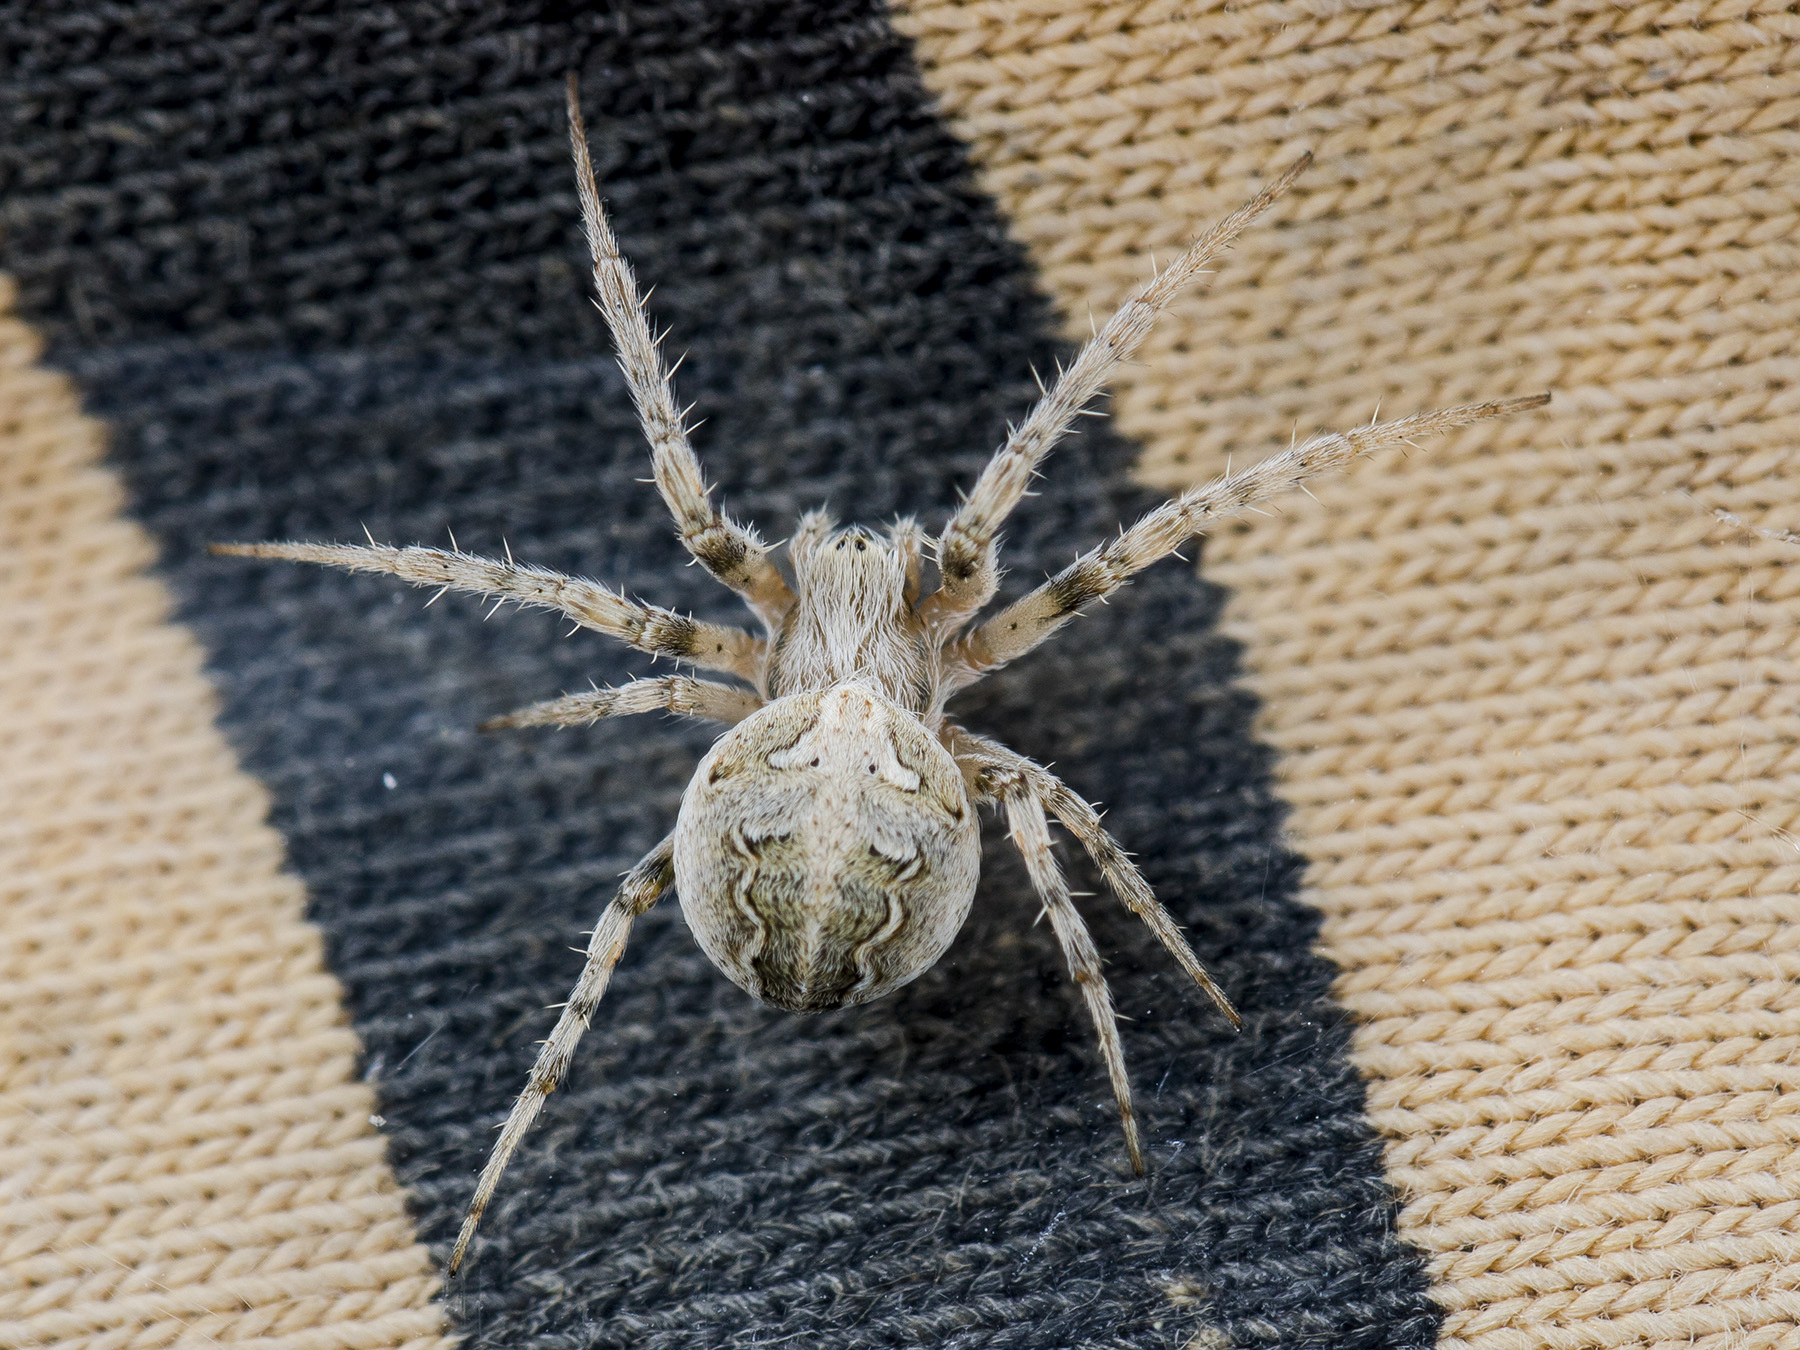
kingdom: Animalia
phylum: Arthropoda
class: Arachnida
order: Araneae
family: Araneidae
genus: Araneus
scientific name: Araneus pallasi
